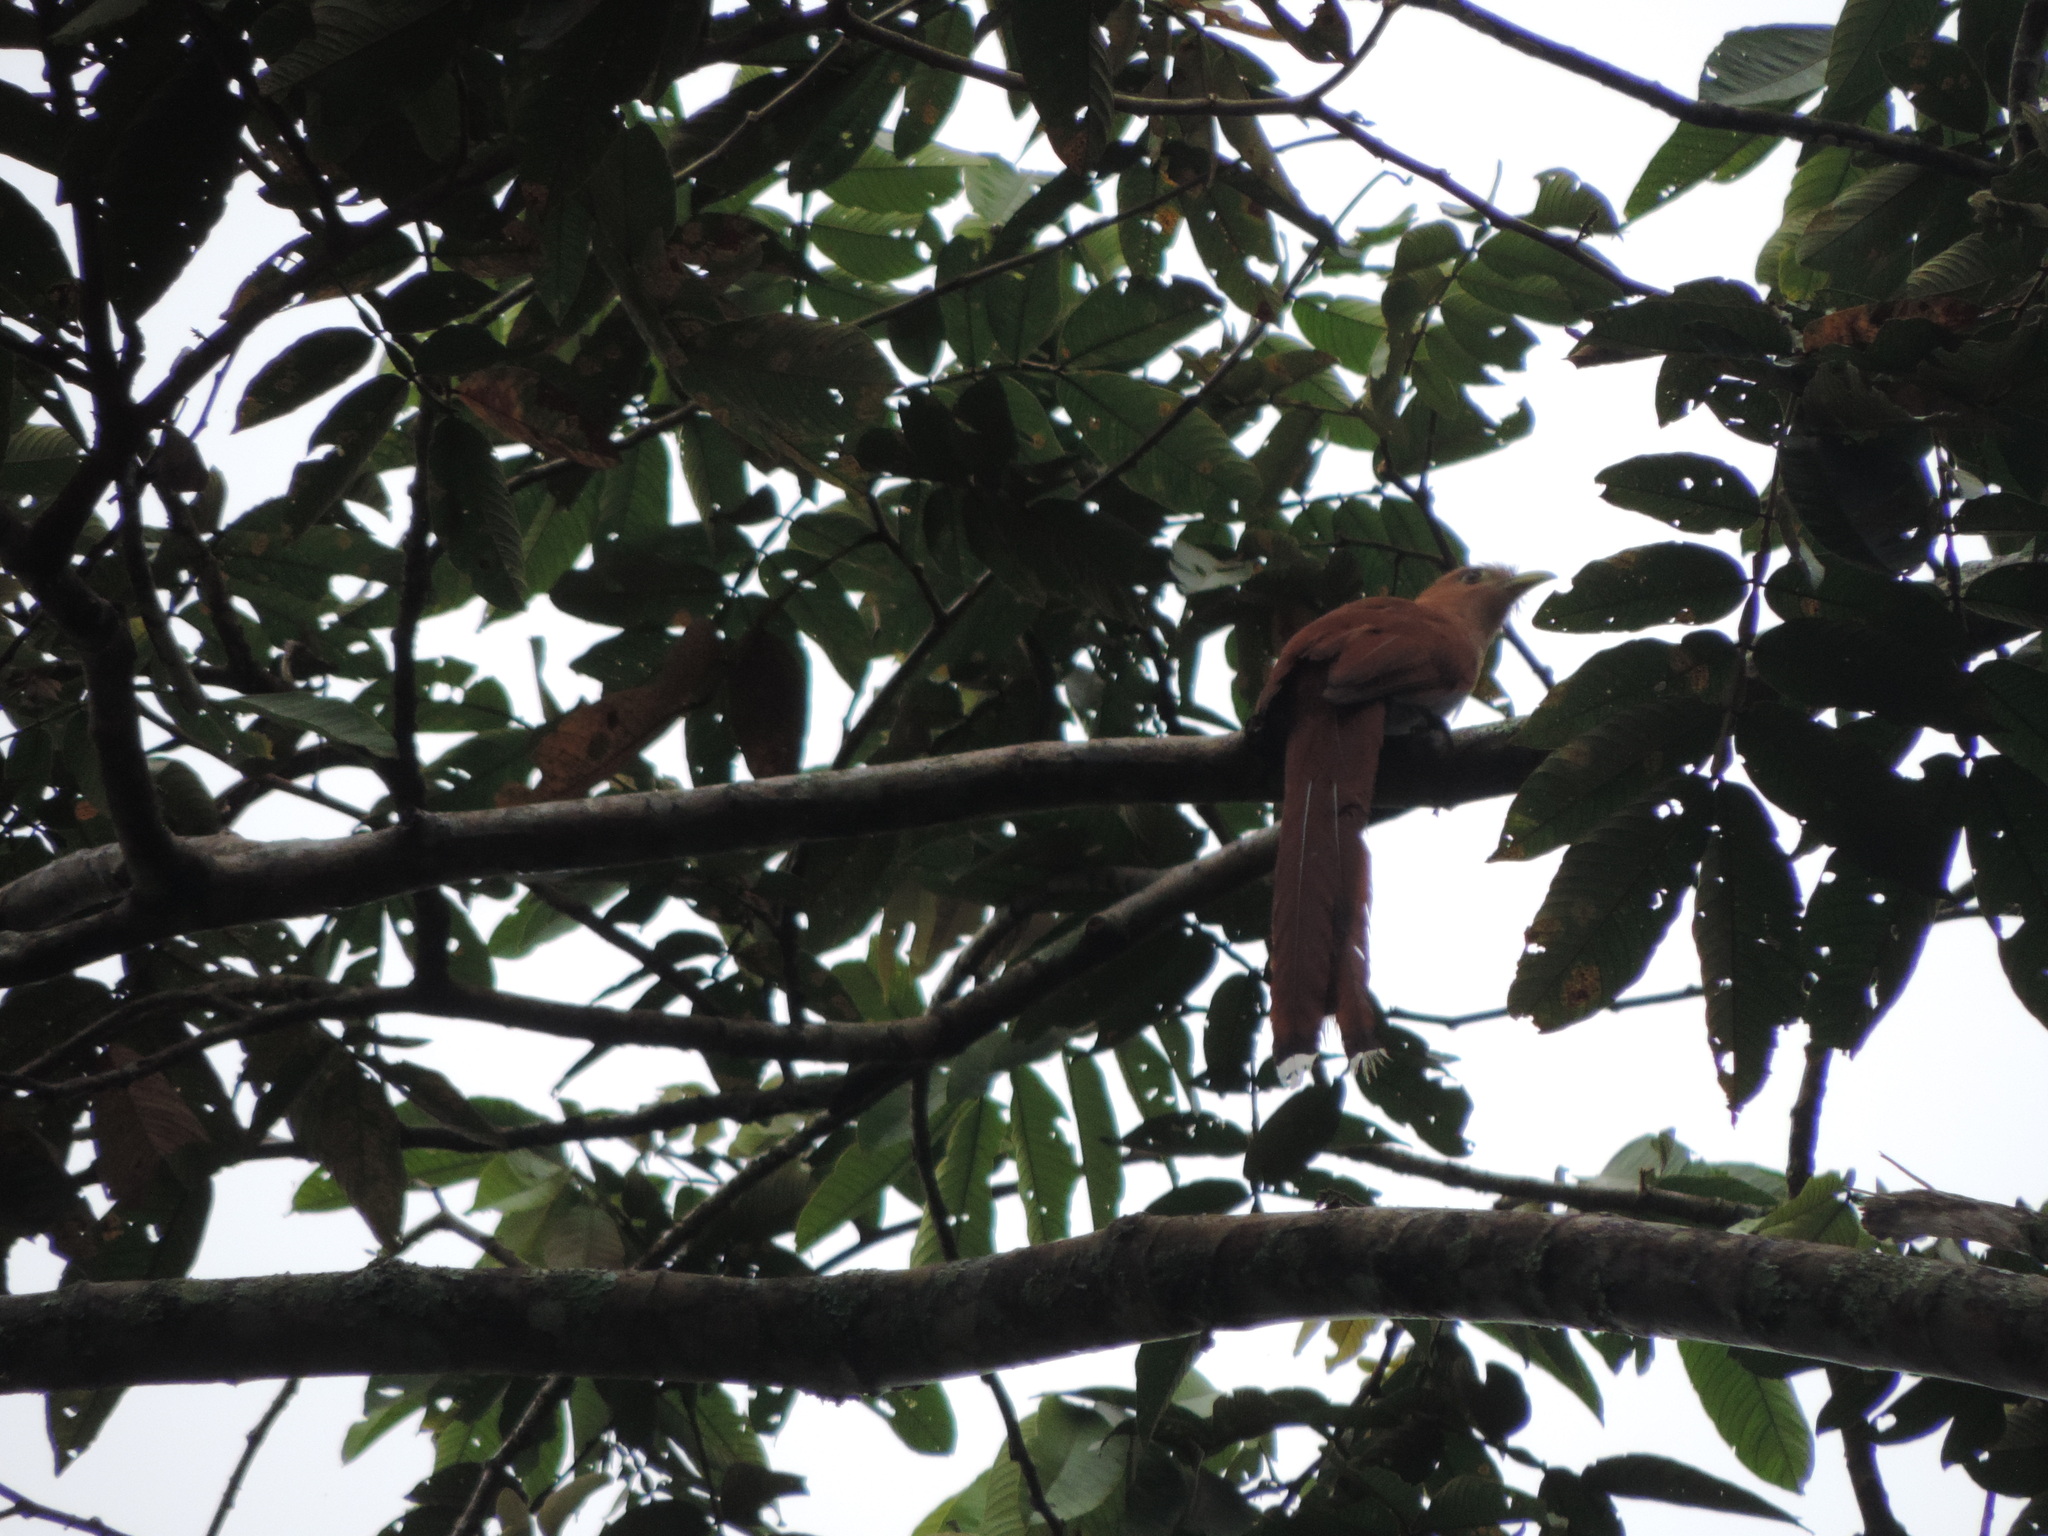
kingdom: Animalia
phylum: Chordata
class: Aves
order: Cuculiformes
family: Cuculidae
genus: Piaya
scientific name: Piaya cayana
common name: Squirrel cuckoo
